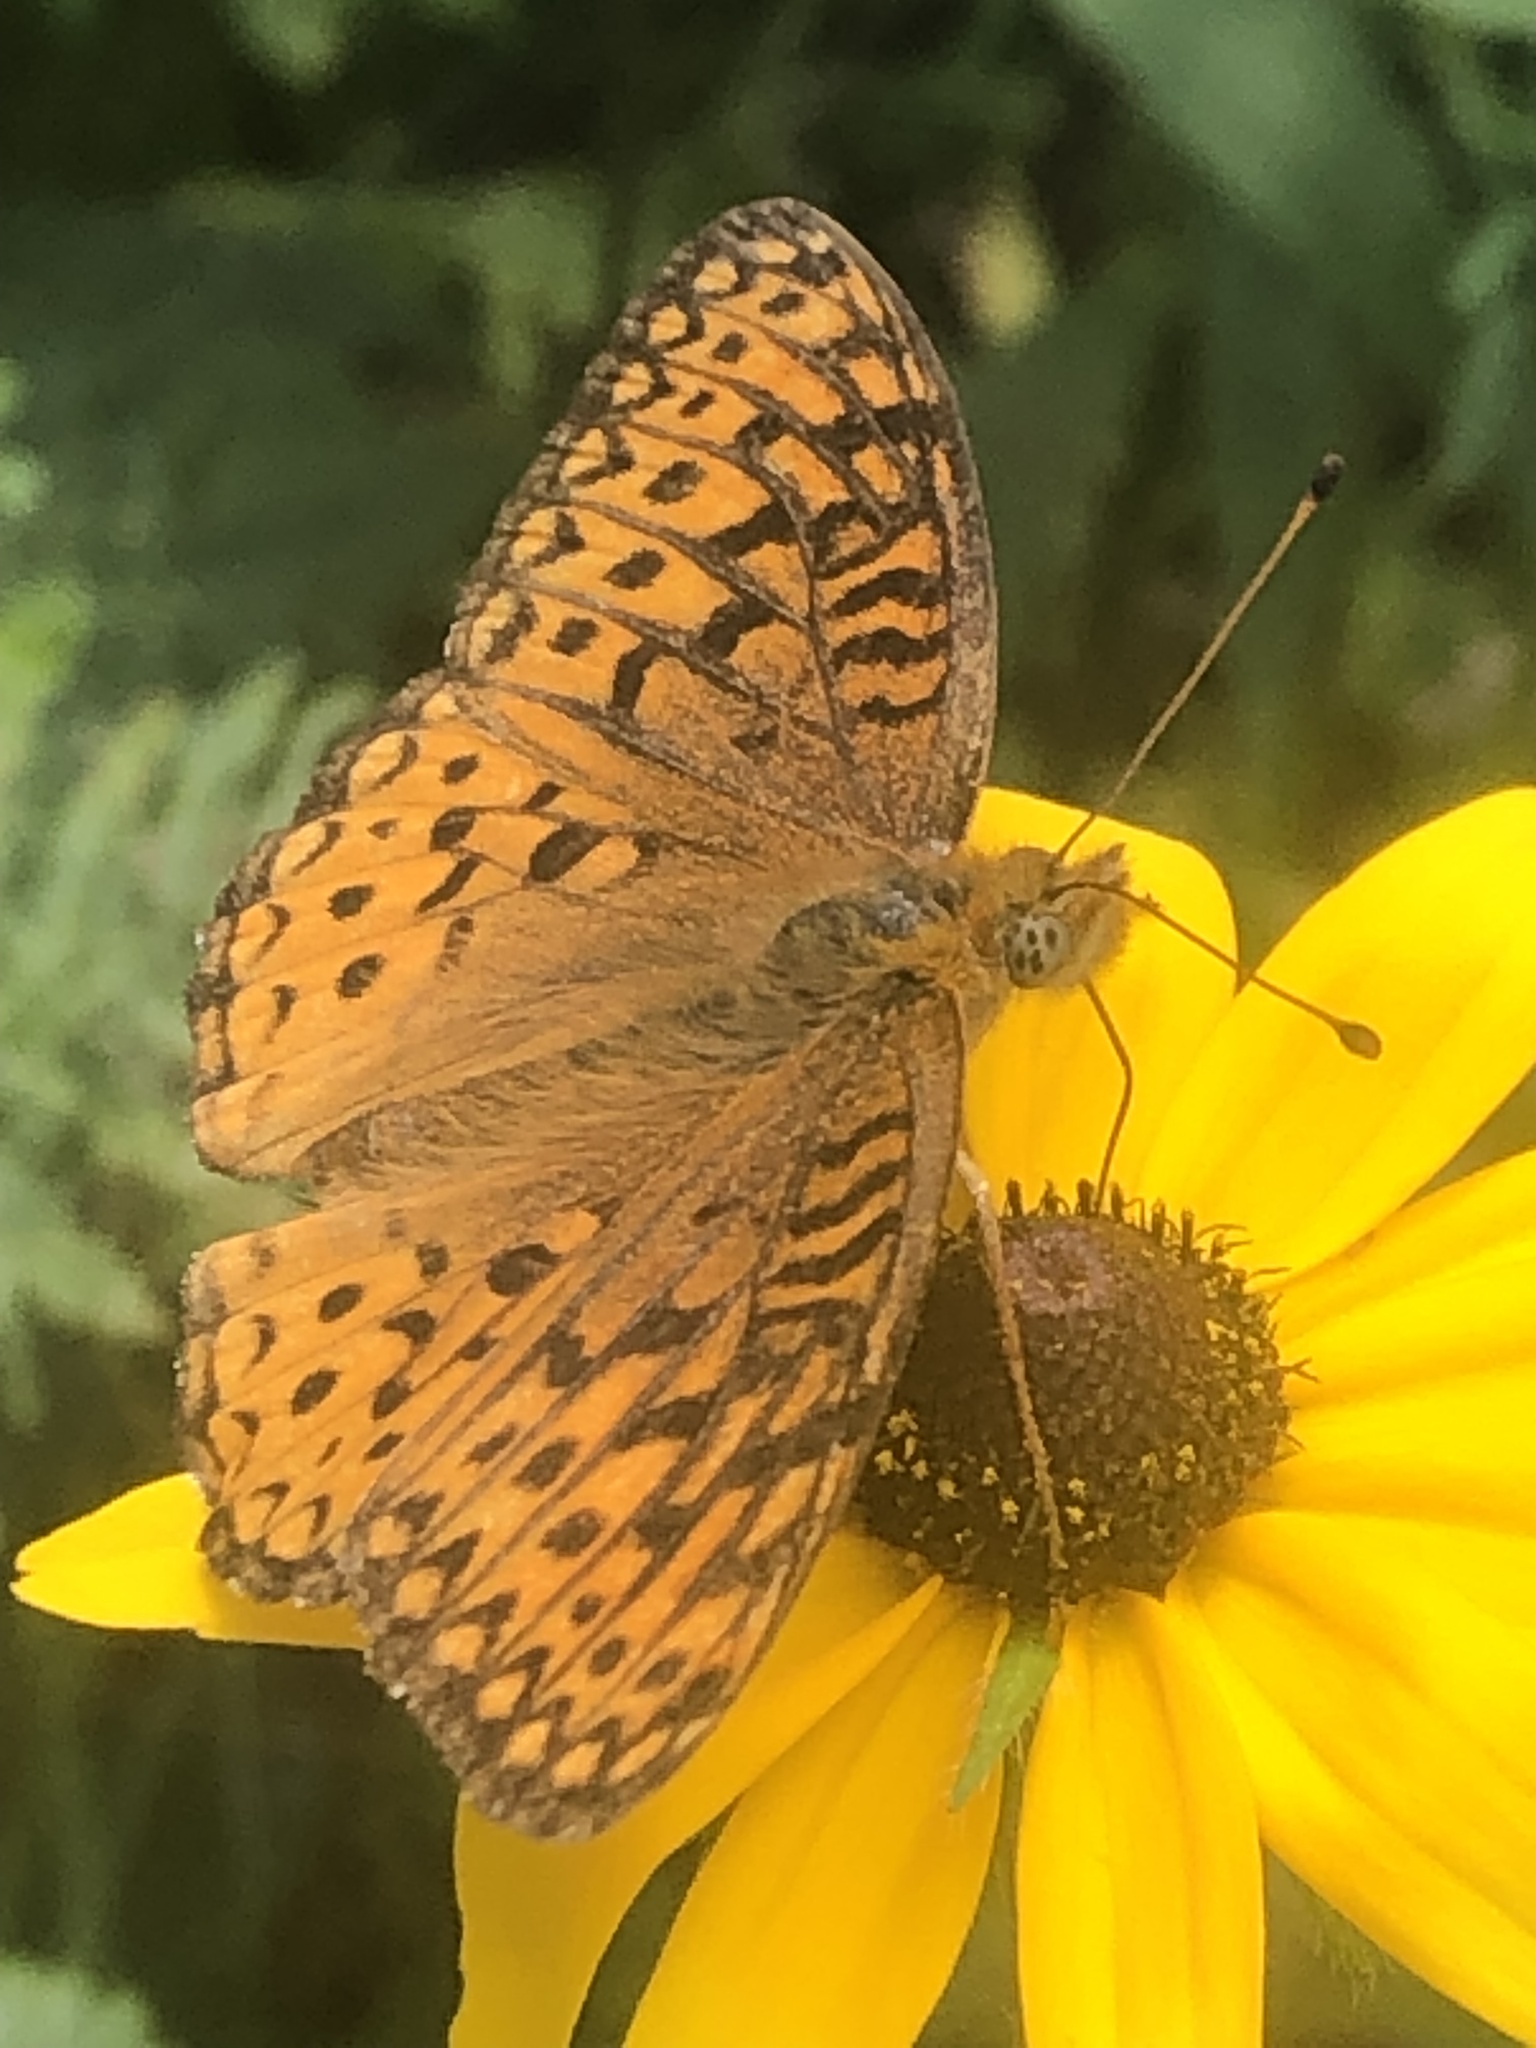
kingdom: Animalia
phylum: Arthropoda
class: Insecta
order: Lepidoptera
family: Nymphalidae
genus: Speyeria
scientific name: Speyeria atlantis
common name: Atlantis fritillary
